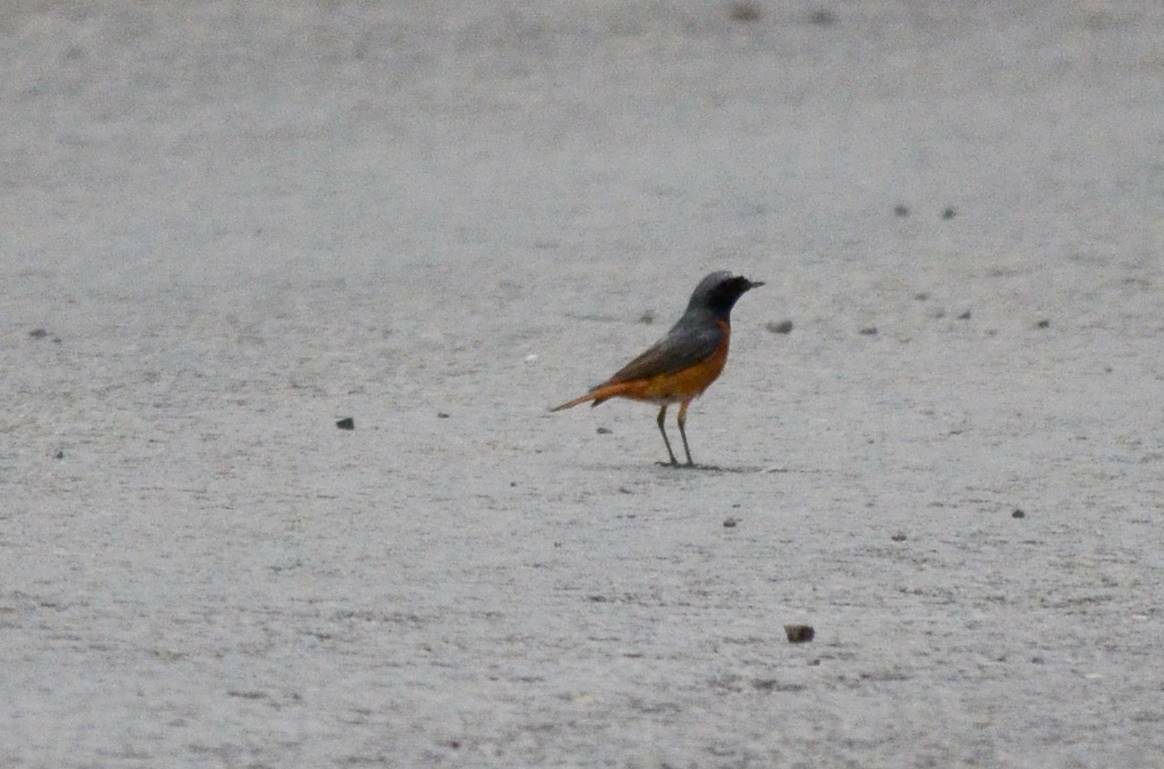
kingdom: Animalia
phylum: Chordata
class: Aves
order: Passeriformes
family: Muscicapidae
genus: Phoenicurus
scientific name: Phoenicurus phoenicurus
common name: Common redstart
